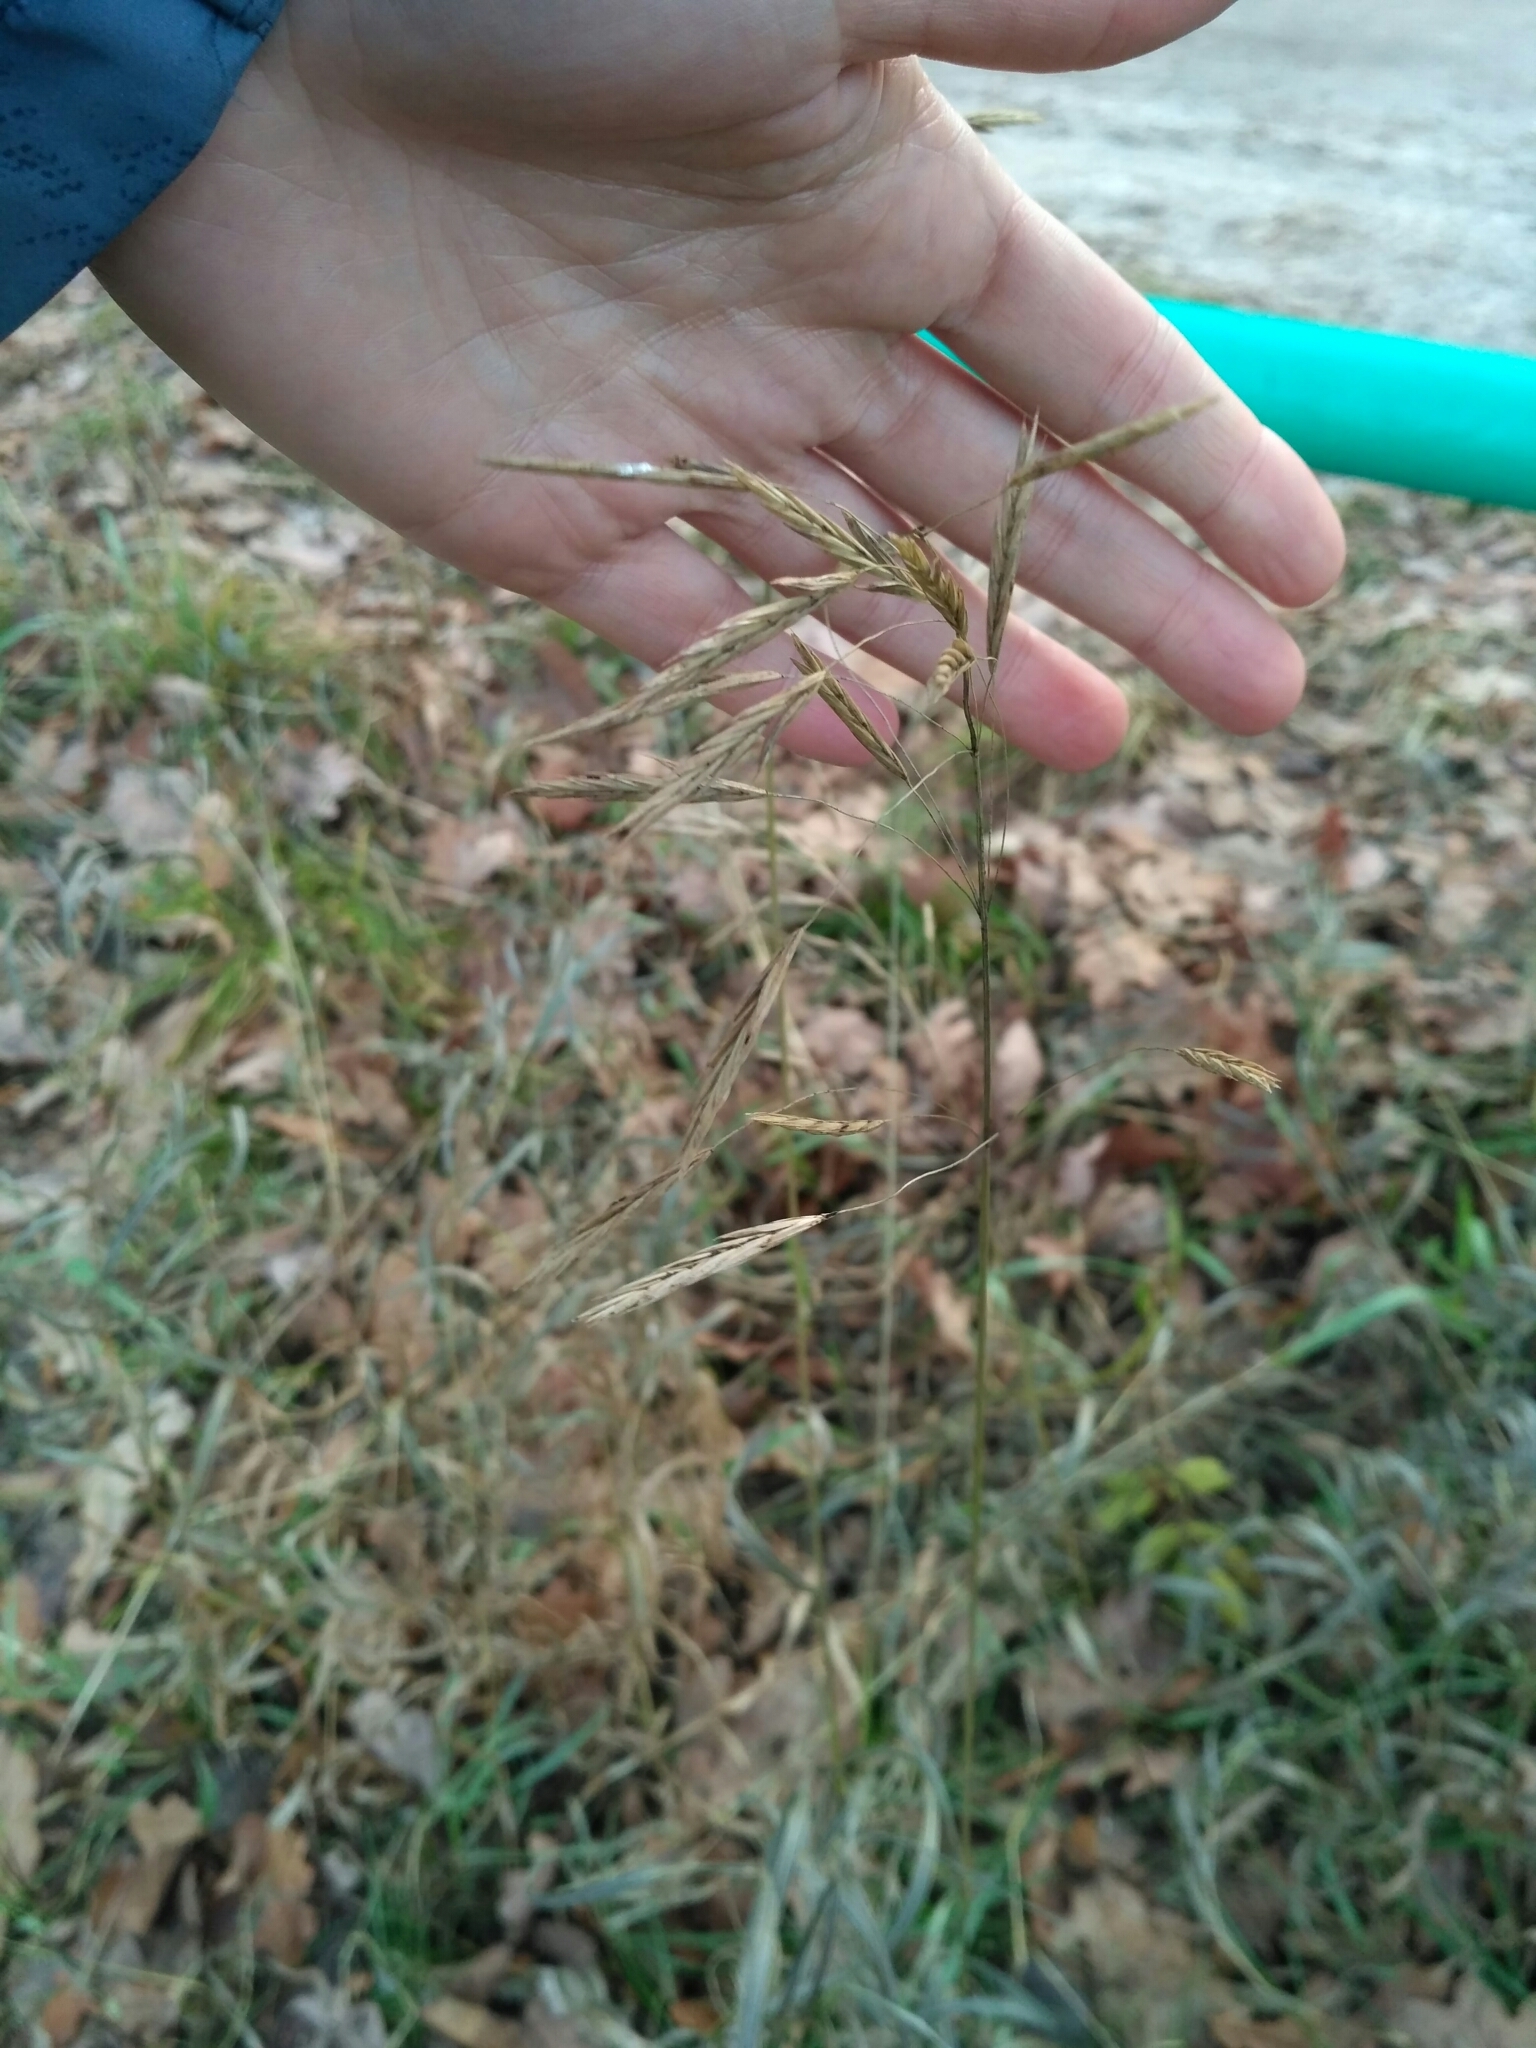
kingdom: Plantae
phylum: Tracheophyta
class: Liliopsida
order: Poales
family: Poaceae
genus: Bromus
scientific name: Bromus inermis
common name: Smooth brome
